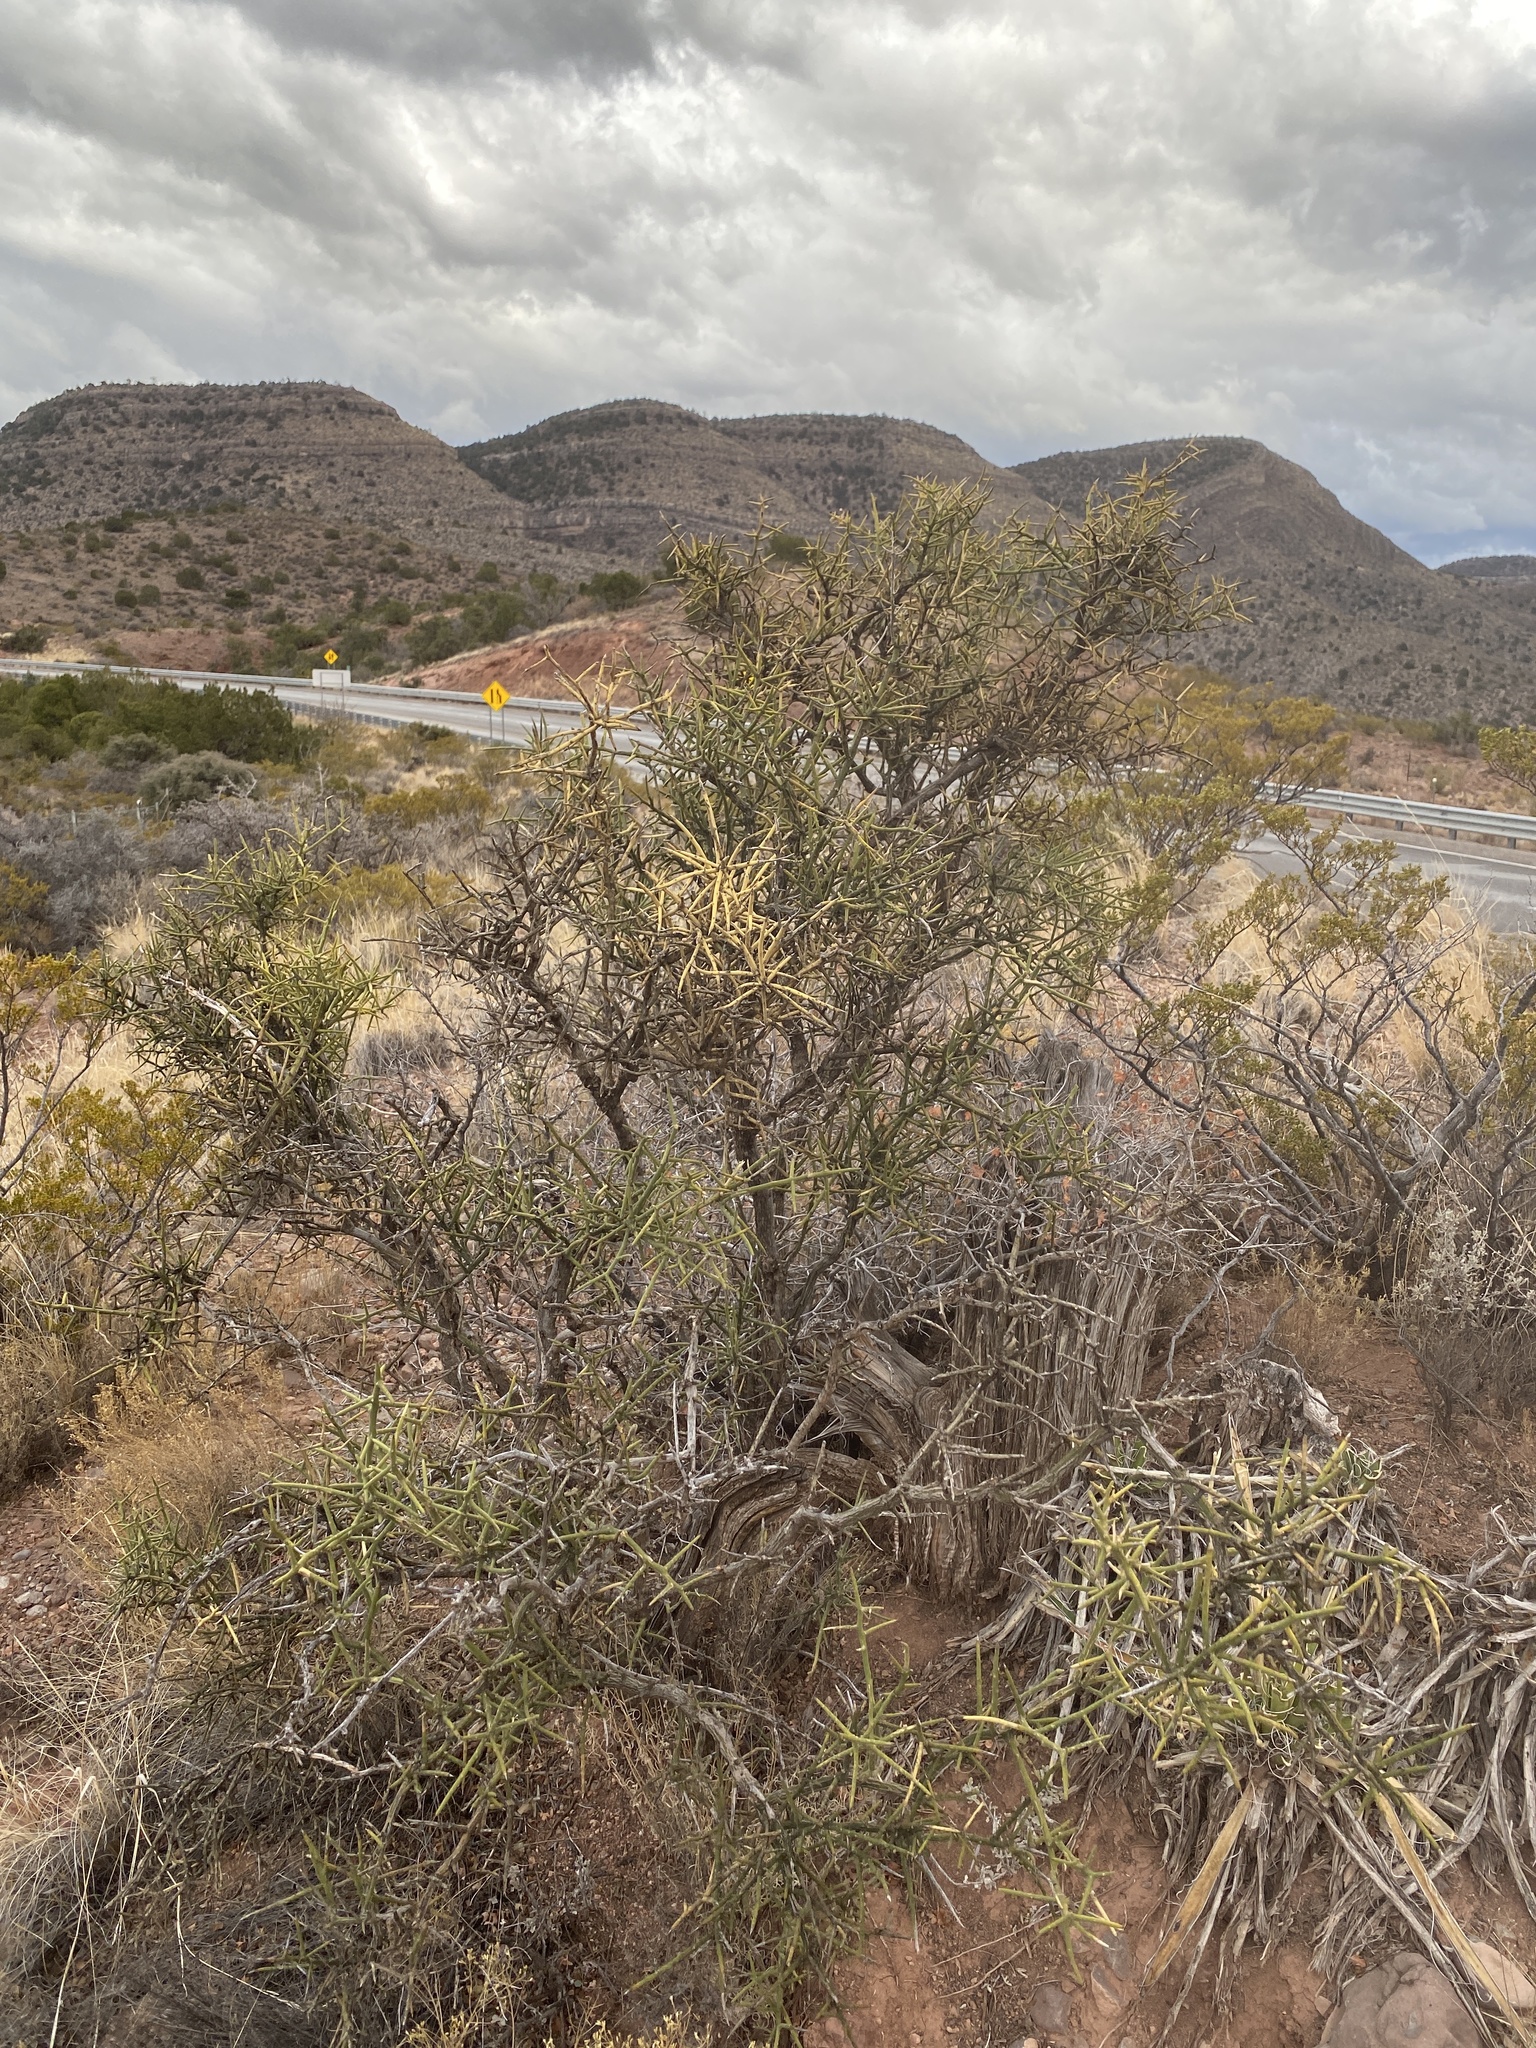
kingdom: Plantae
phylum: Tracheophyta
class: Magnoliopsida
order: Brassicales
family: Koeberliniaceae
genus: Koeberlinia
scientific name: Koeberlinia spinosa
